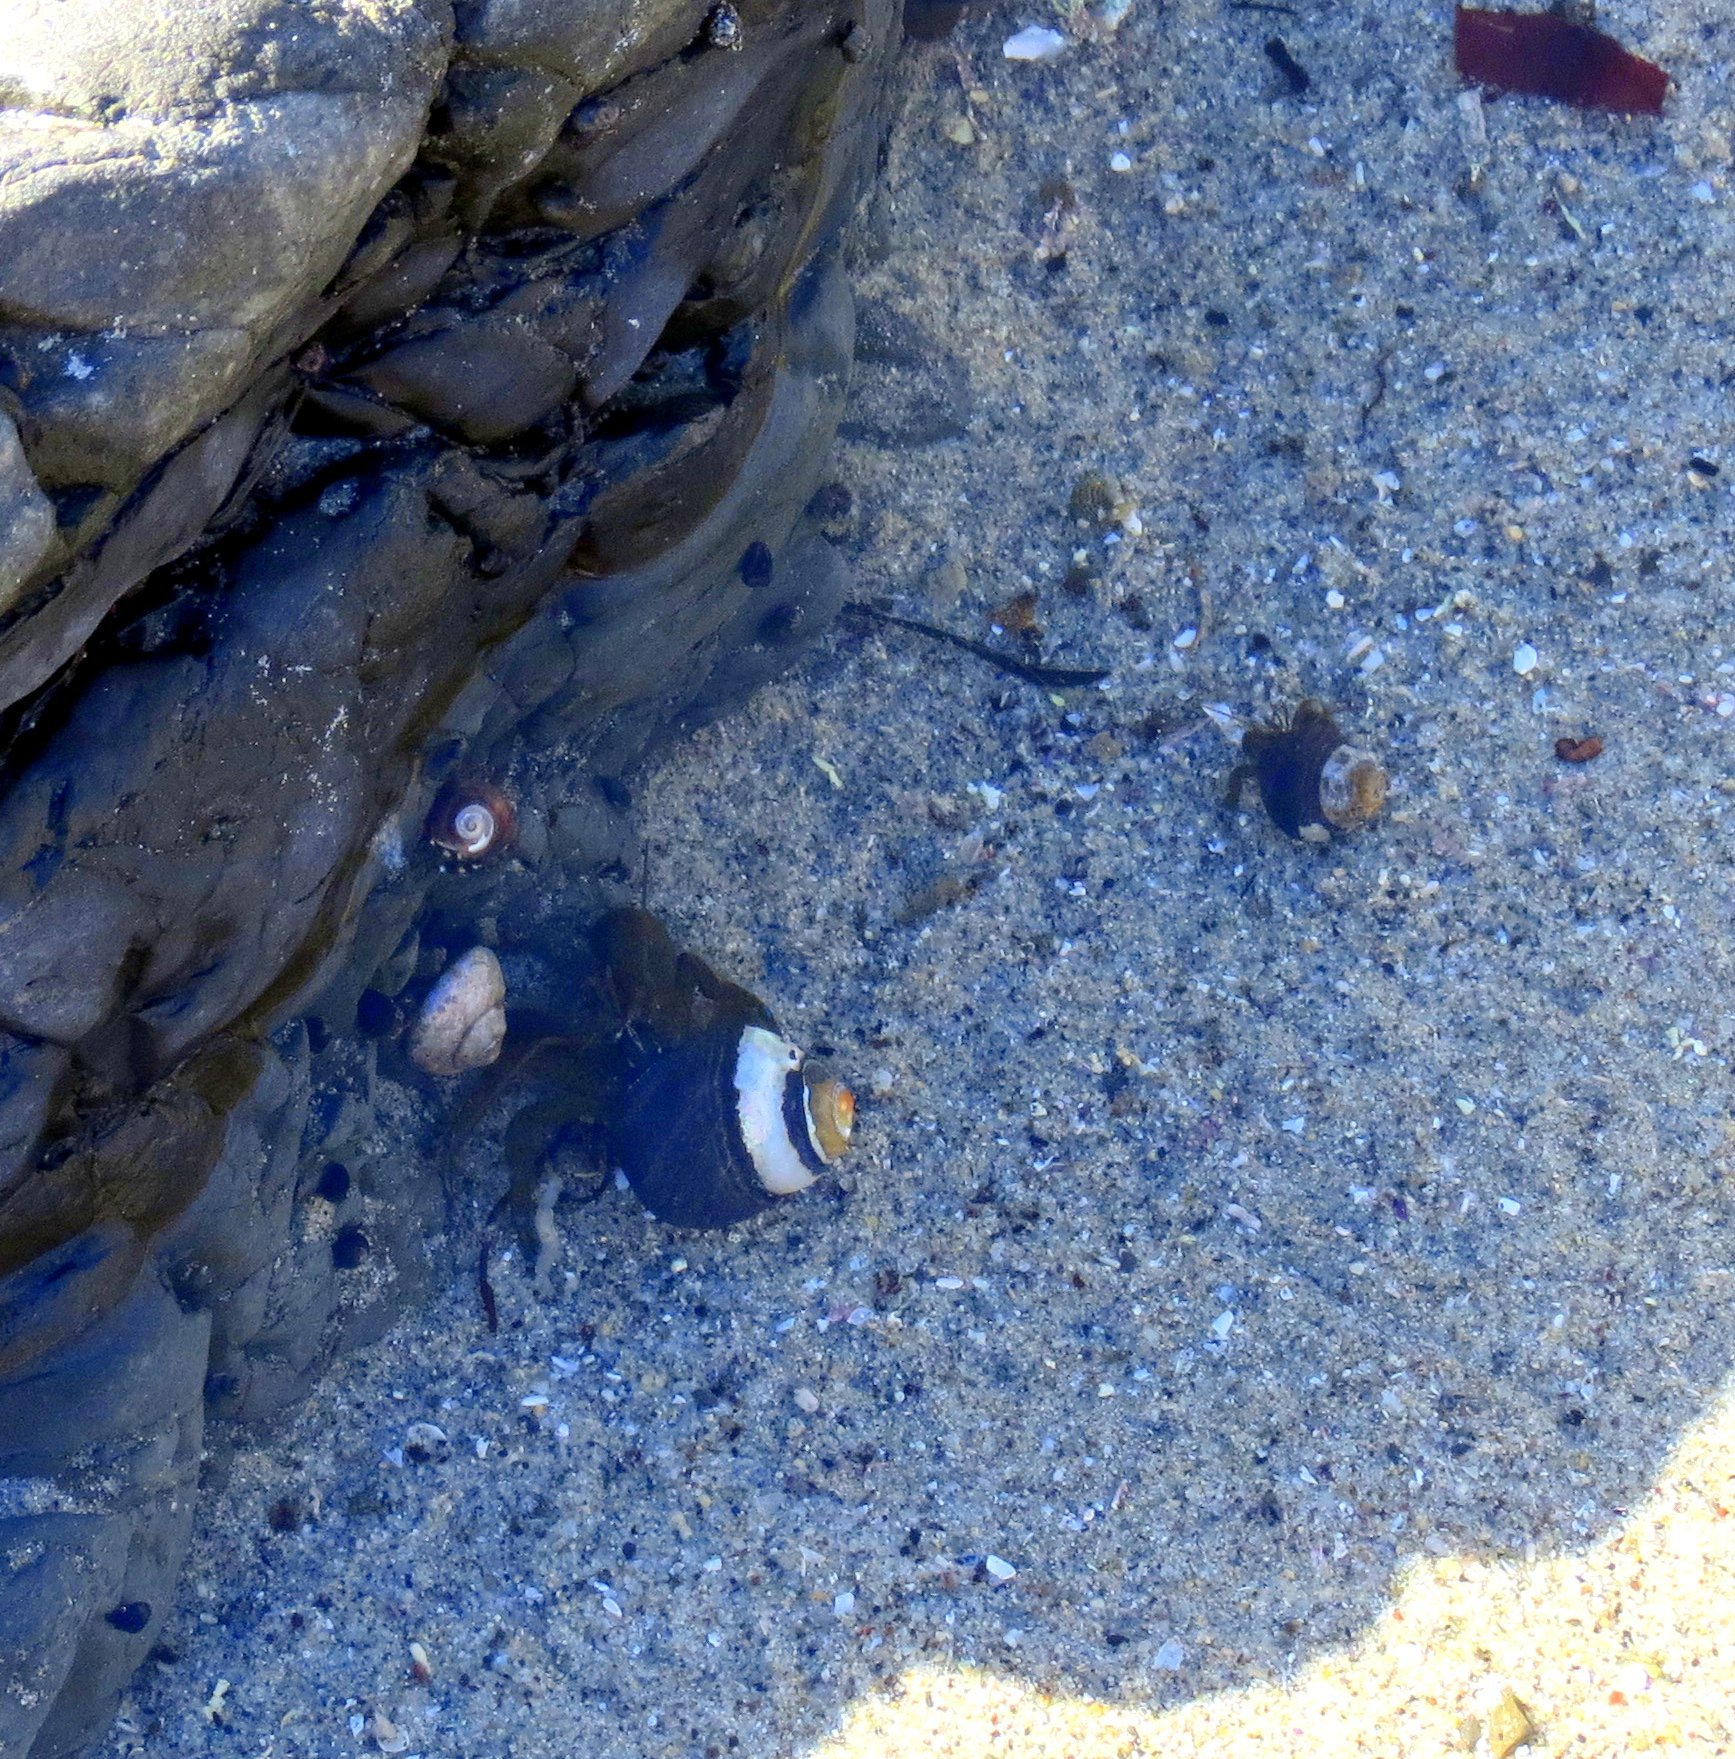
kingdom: Animalia
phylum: Arthropoda
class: Malacostraca
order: Decapoda
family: Paguridae
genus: Pagurus
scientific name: Pagurus samuelis
